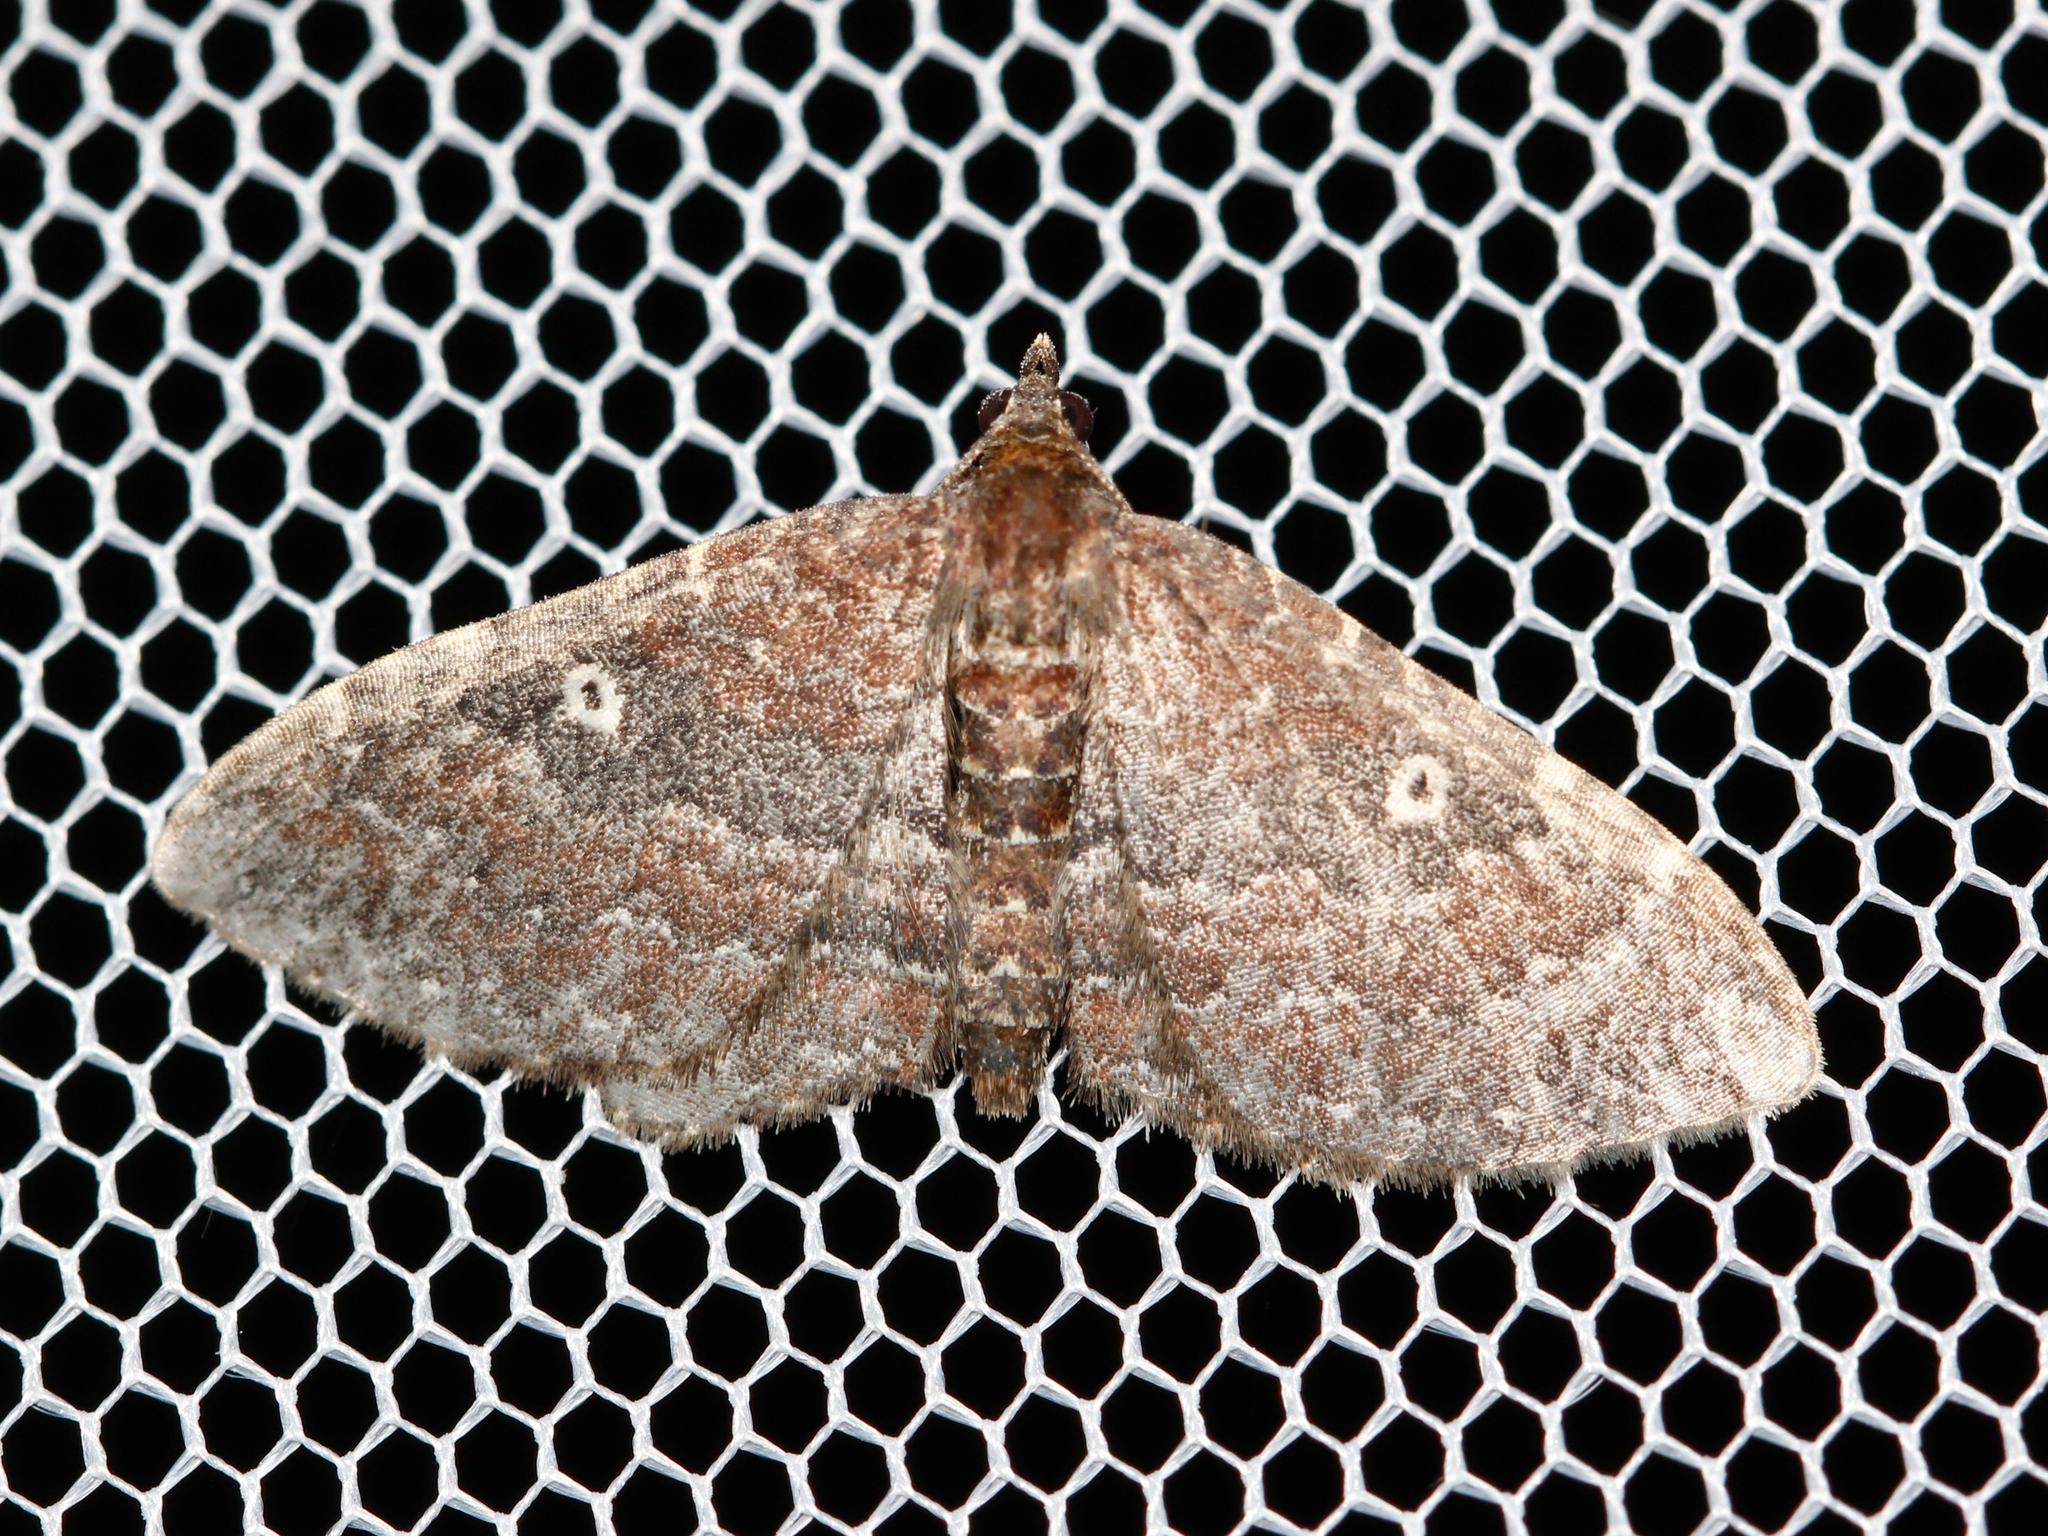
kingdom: Animalia
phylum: Arthropoda
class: Insecta
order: Lepidoptera
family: Geometridae
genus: Orthonama
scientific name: Orthonama obstipata
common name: The gem
